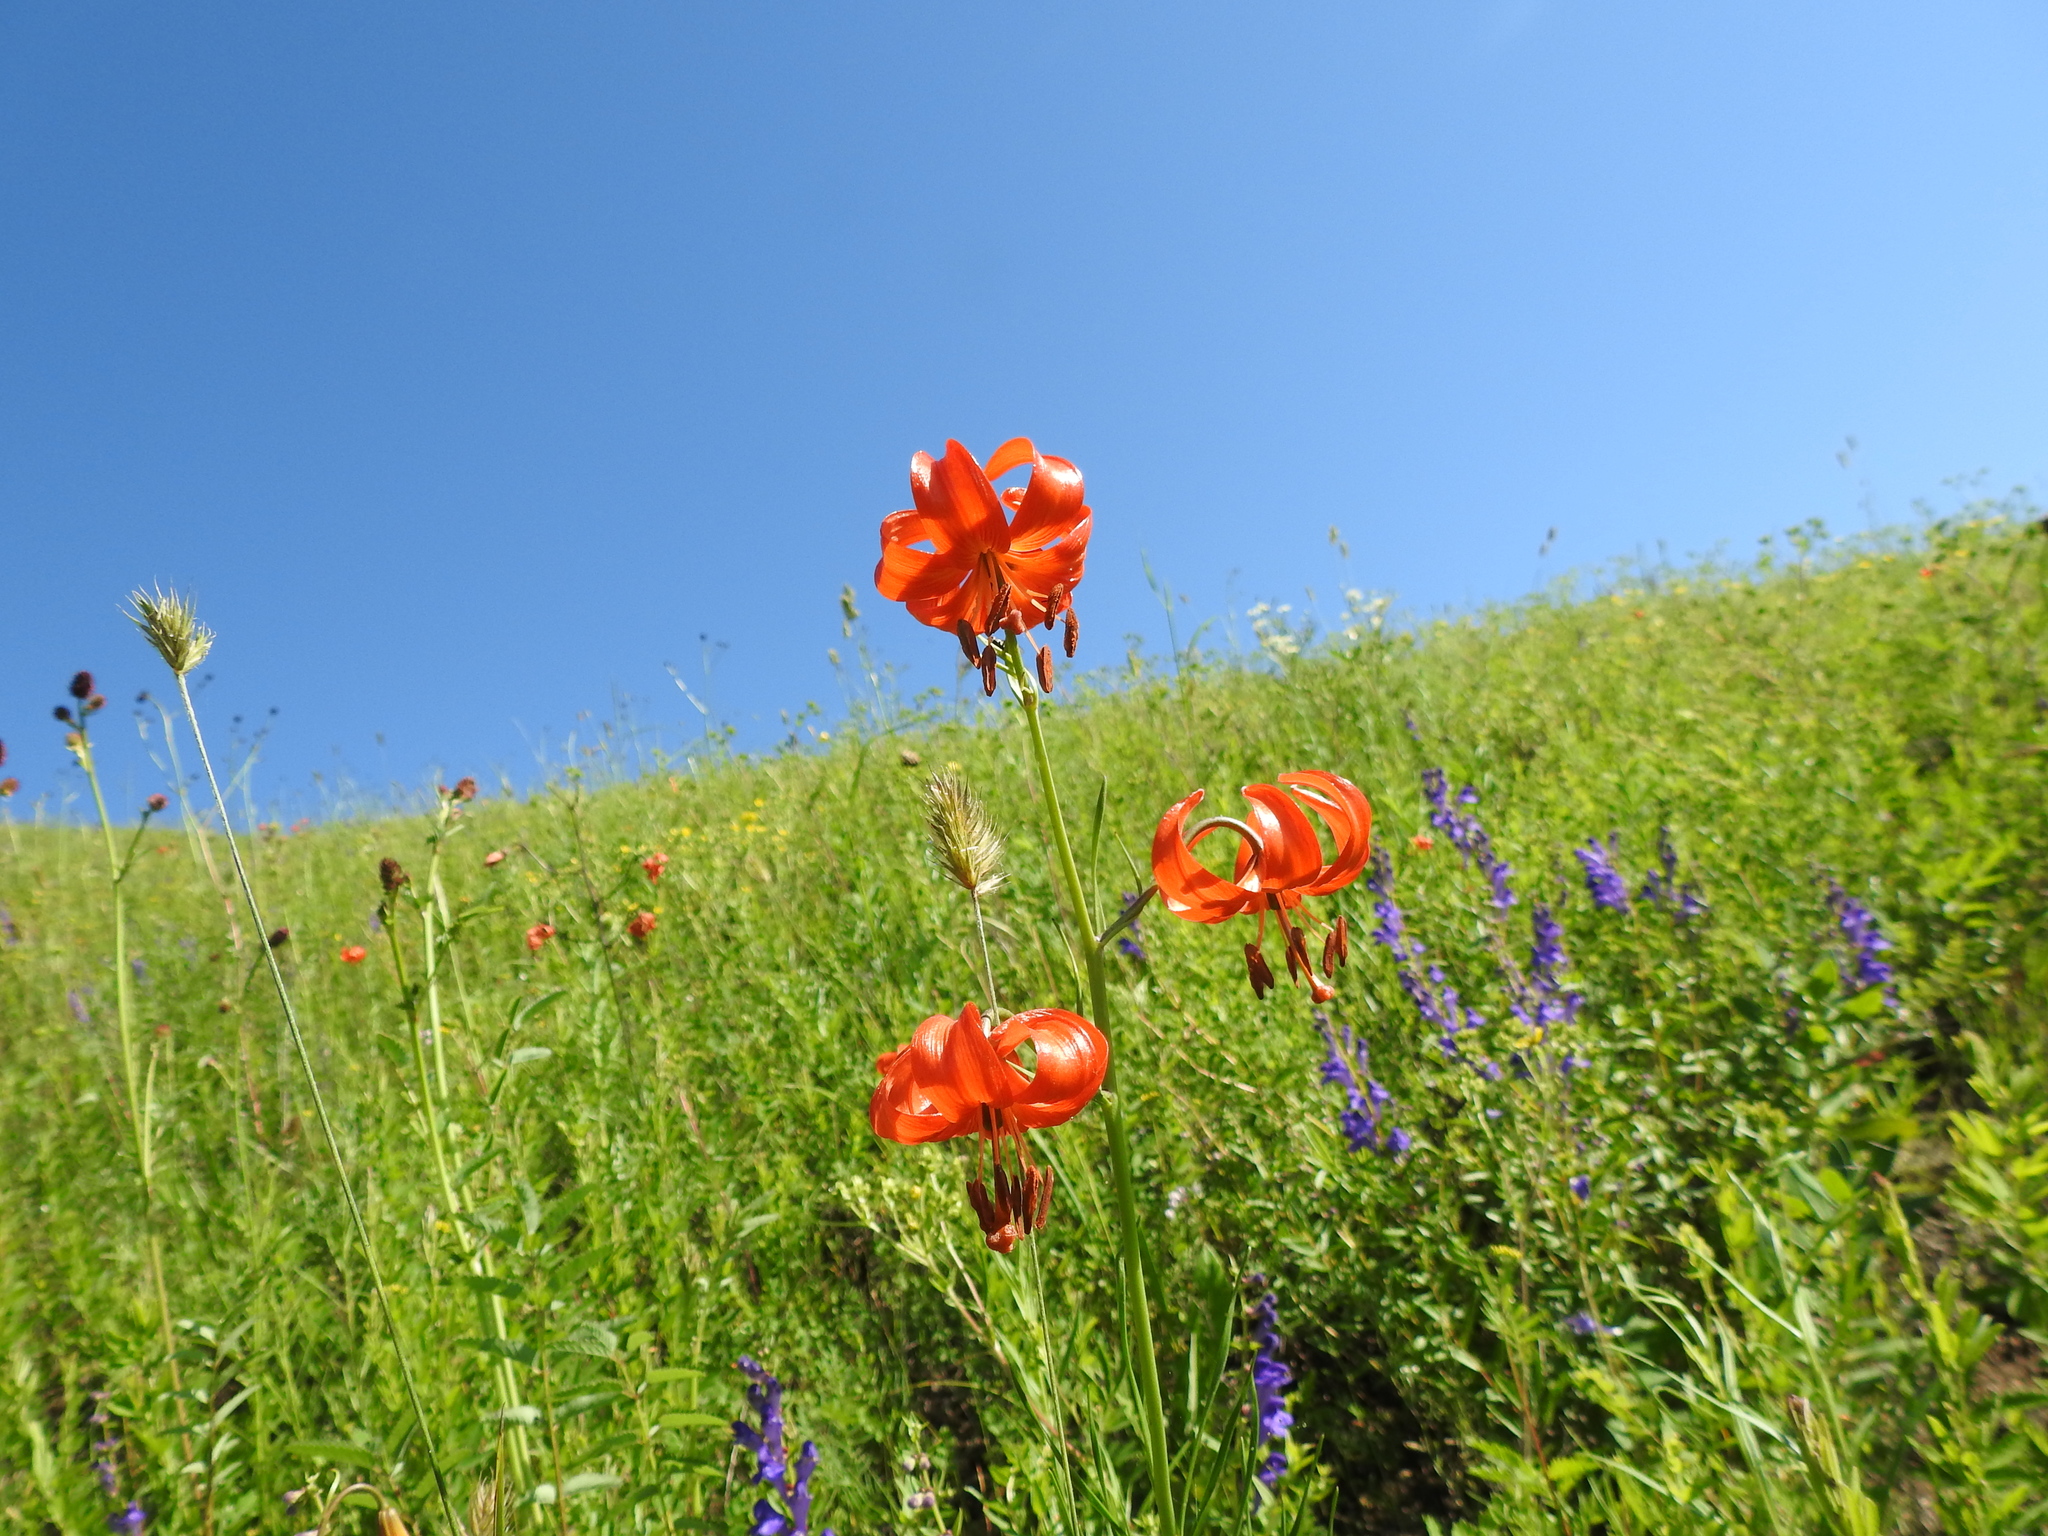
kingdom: Plantae
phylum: Tracheophyta
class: Liliopsida
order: Liliales
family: Liliaceae
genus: Lilium
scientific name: Lilium pumilum
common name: Coral lily
